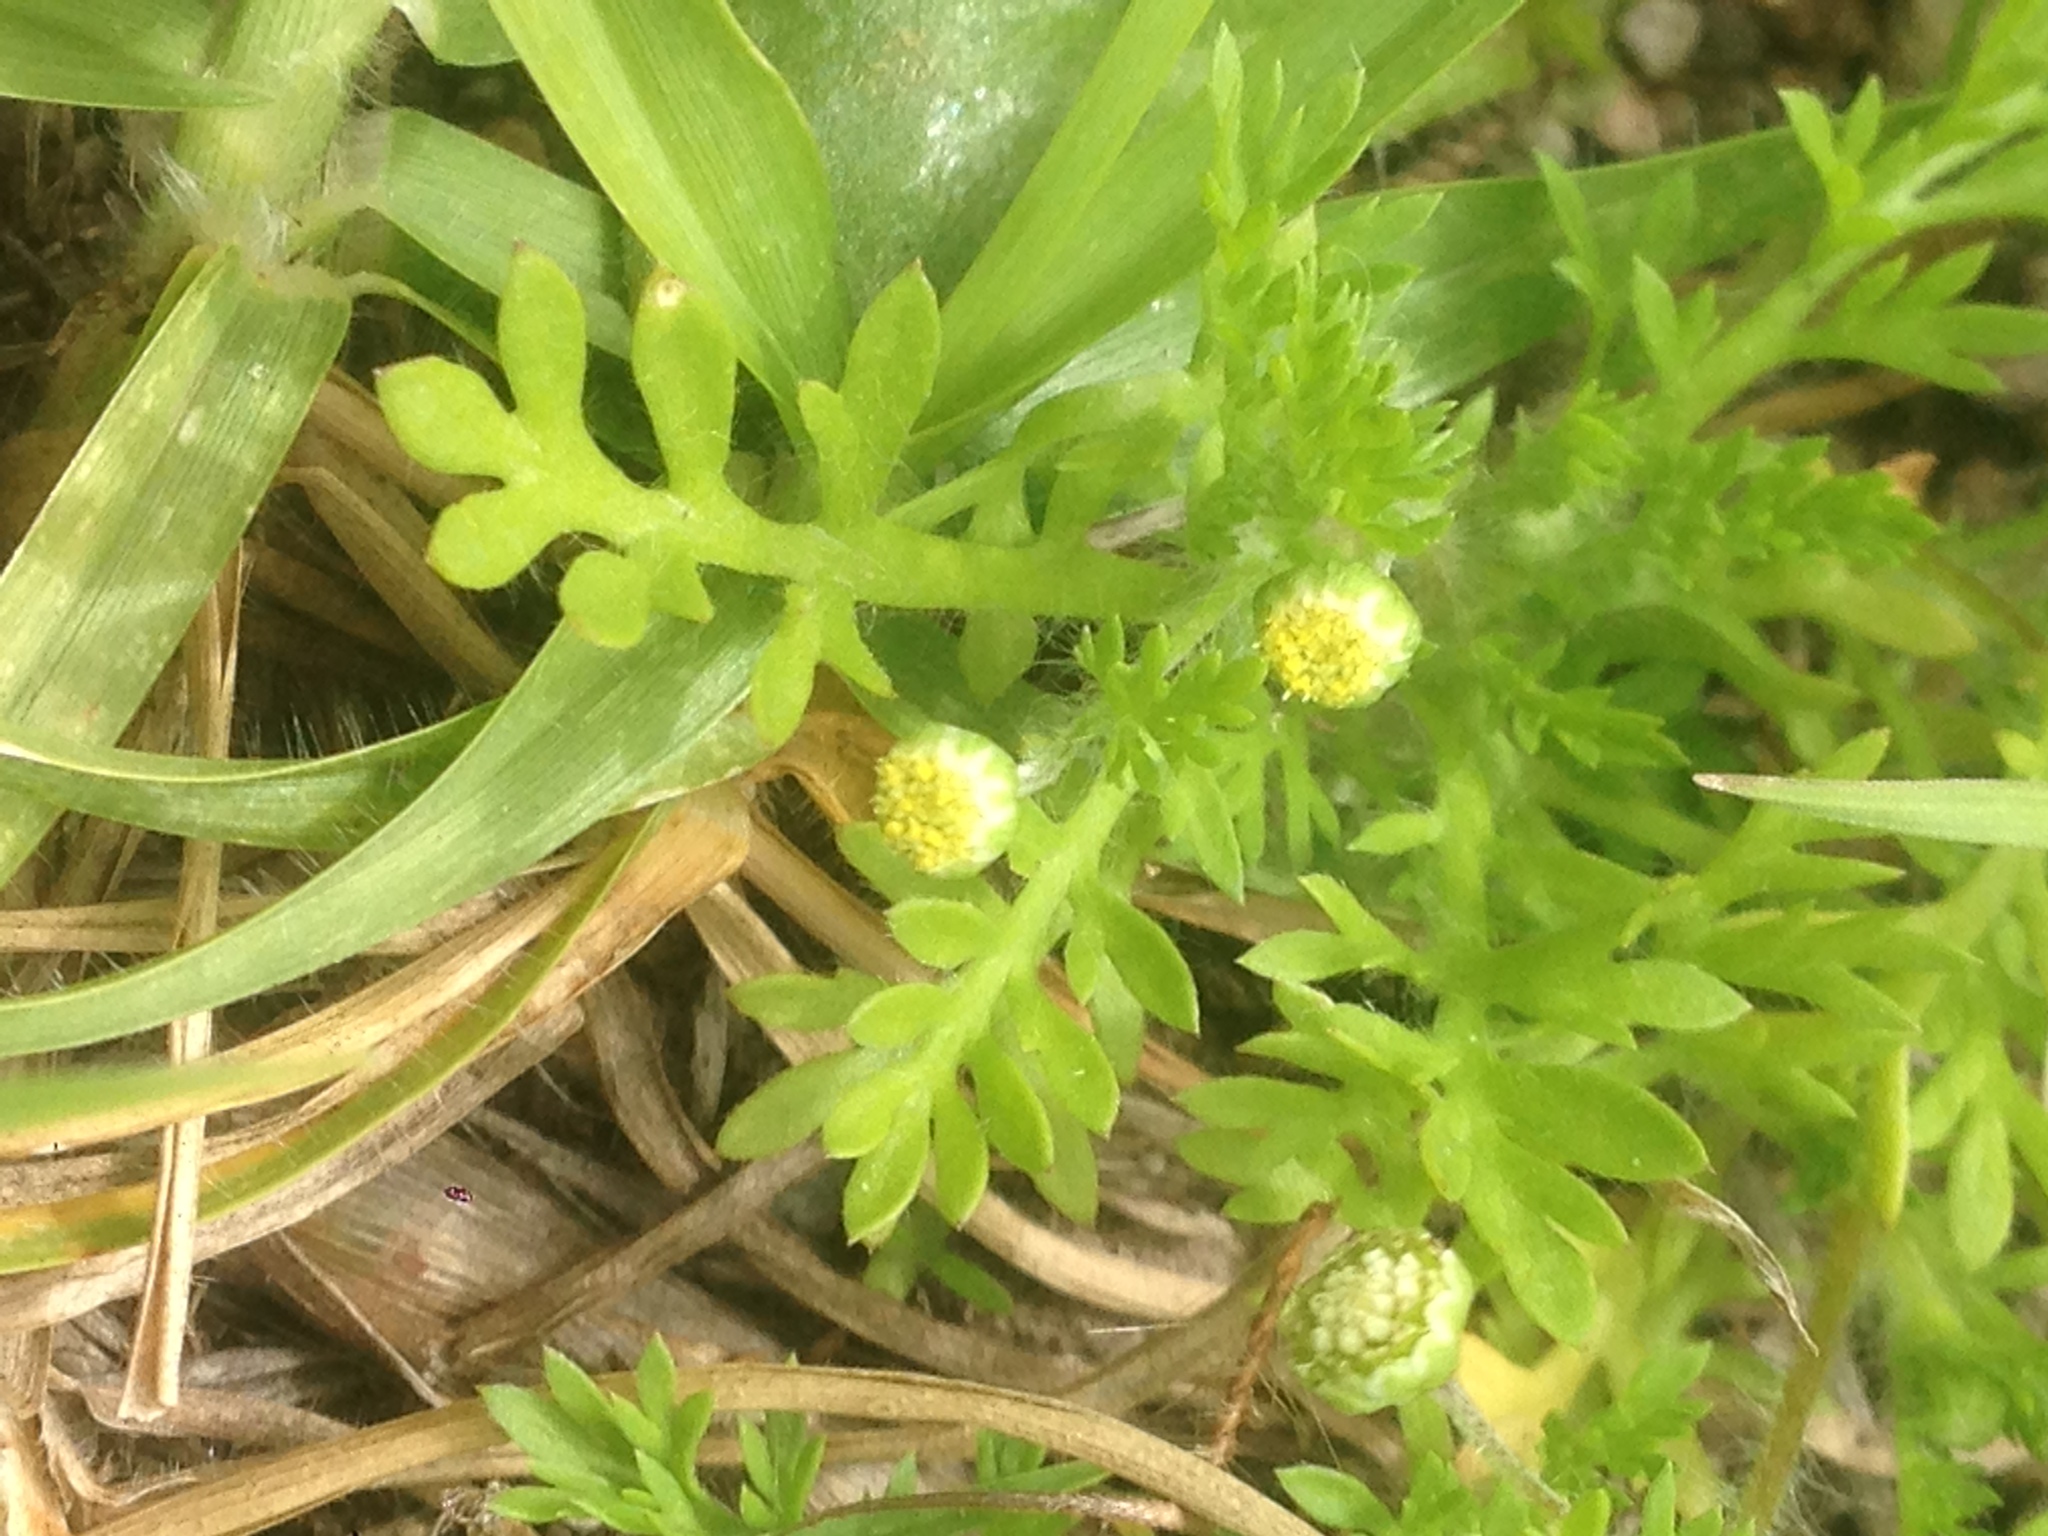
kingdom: Plantae
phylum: Tracheophyta
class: Magnoliopsida
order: Asterales
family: Asteraceae
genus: Cotula
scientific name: Cotula australis
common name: Australian waterbuttons
